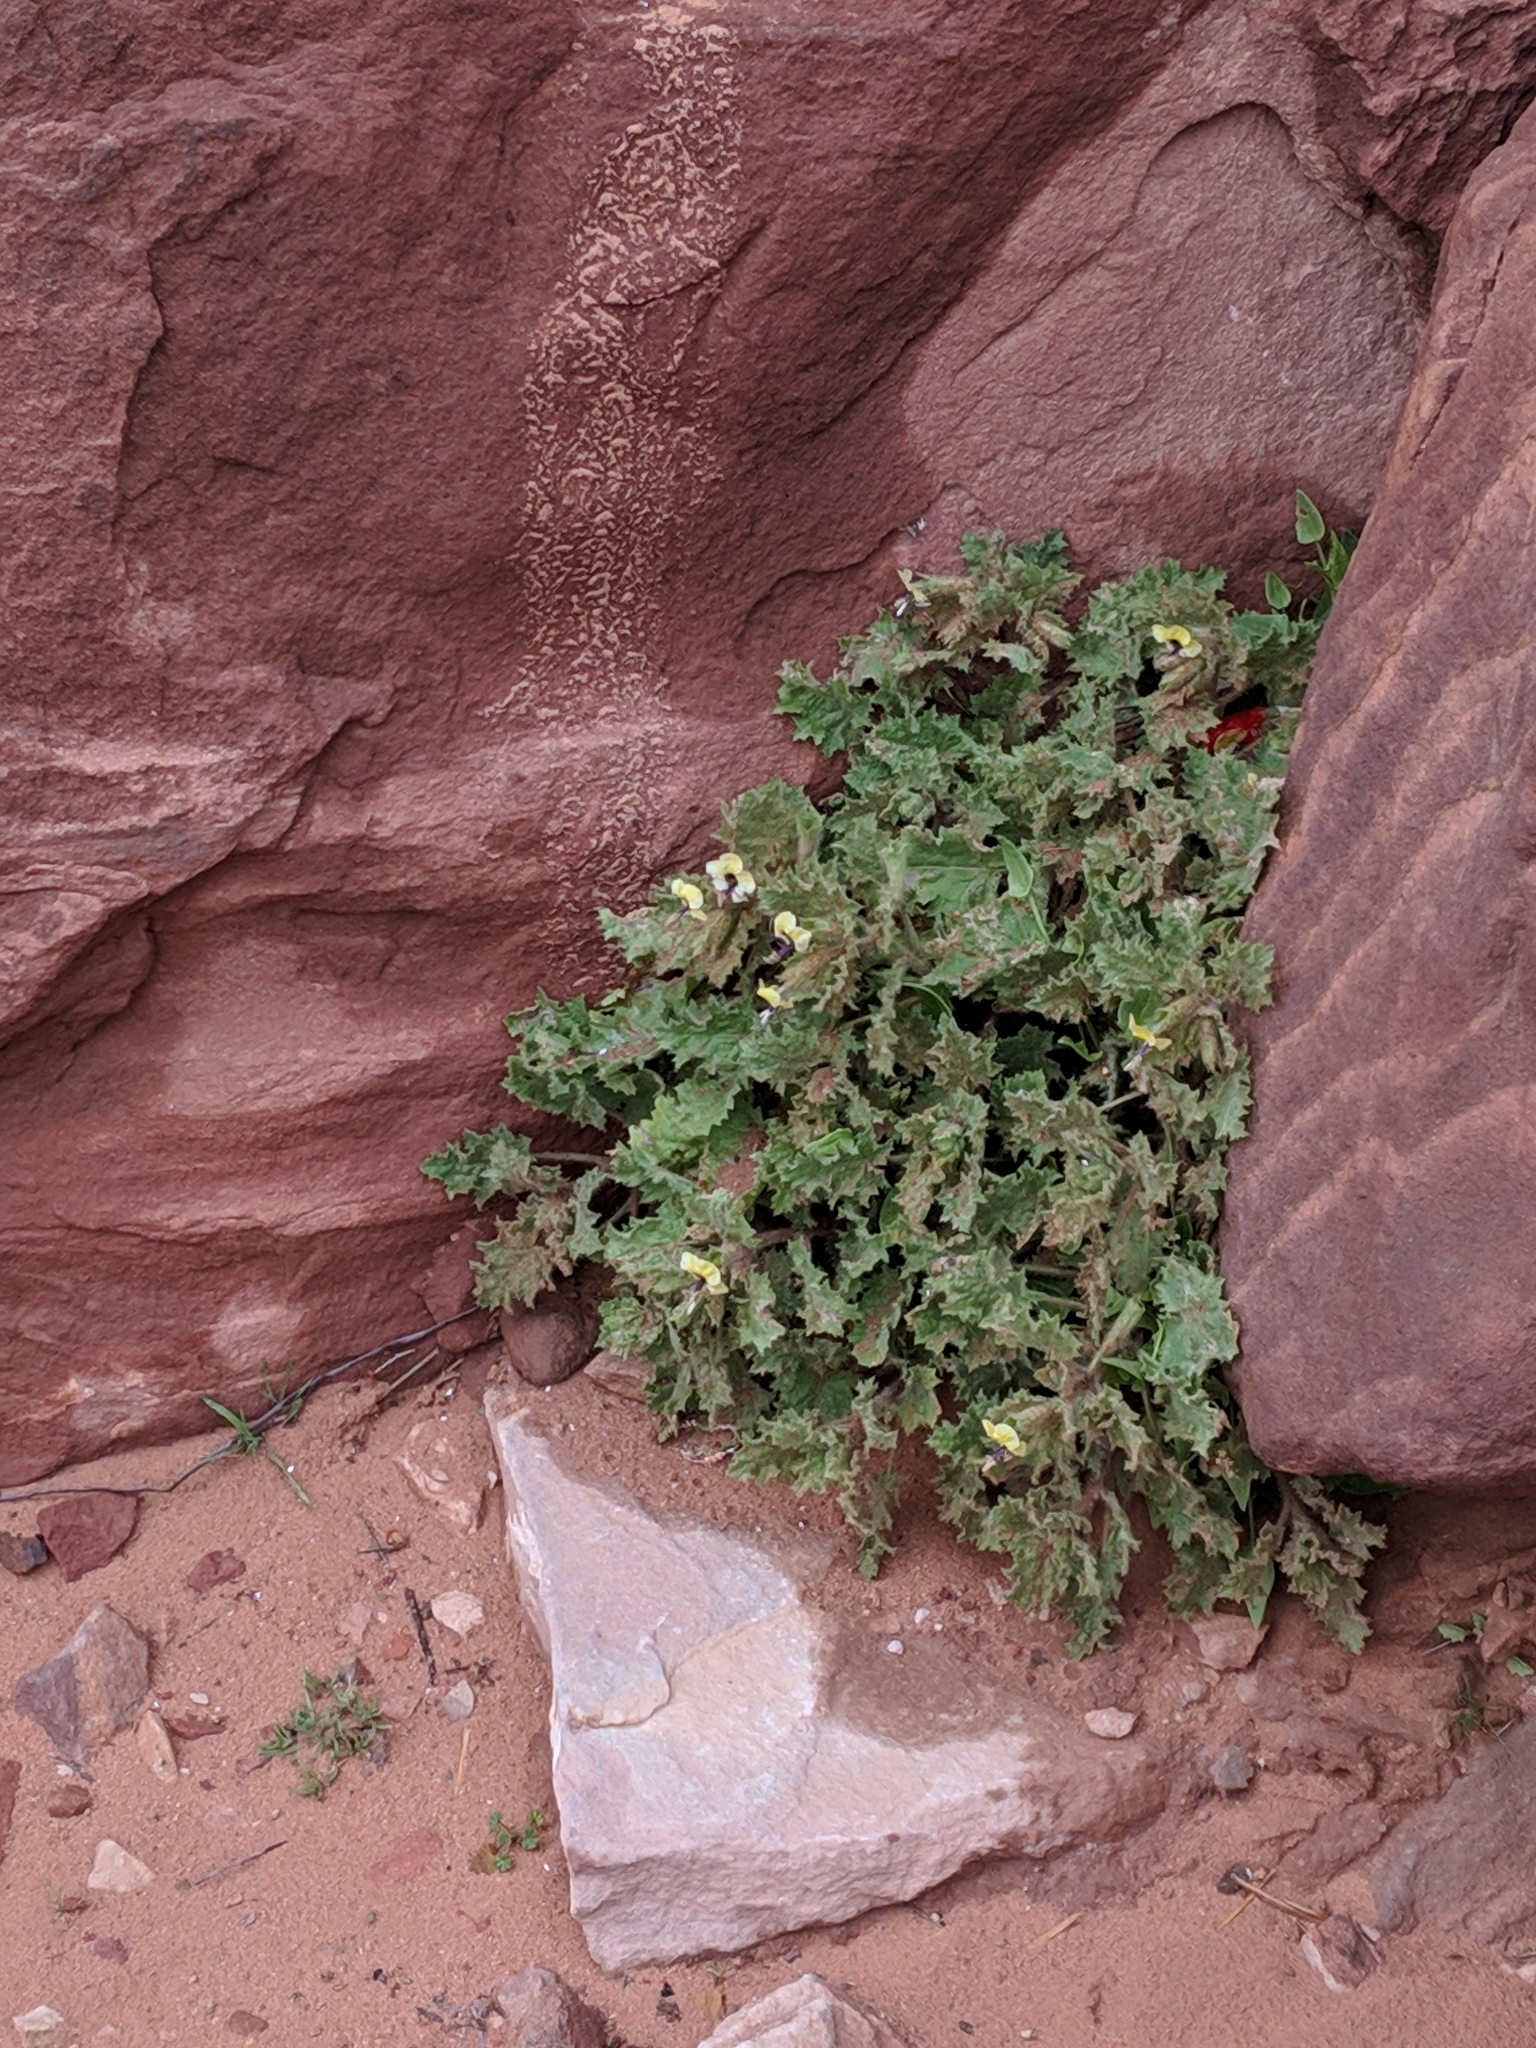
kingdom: Plantae
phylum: Tracheophyta
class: Magnoliopsida
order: Solanales
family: Solanaceae
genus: Hyoscyamus
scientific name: Hyoscyamus aureus
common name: Golden henbane
